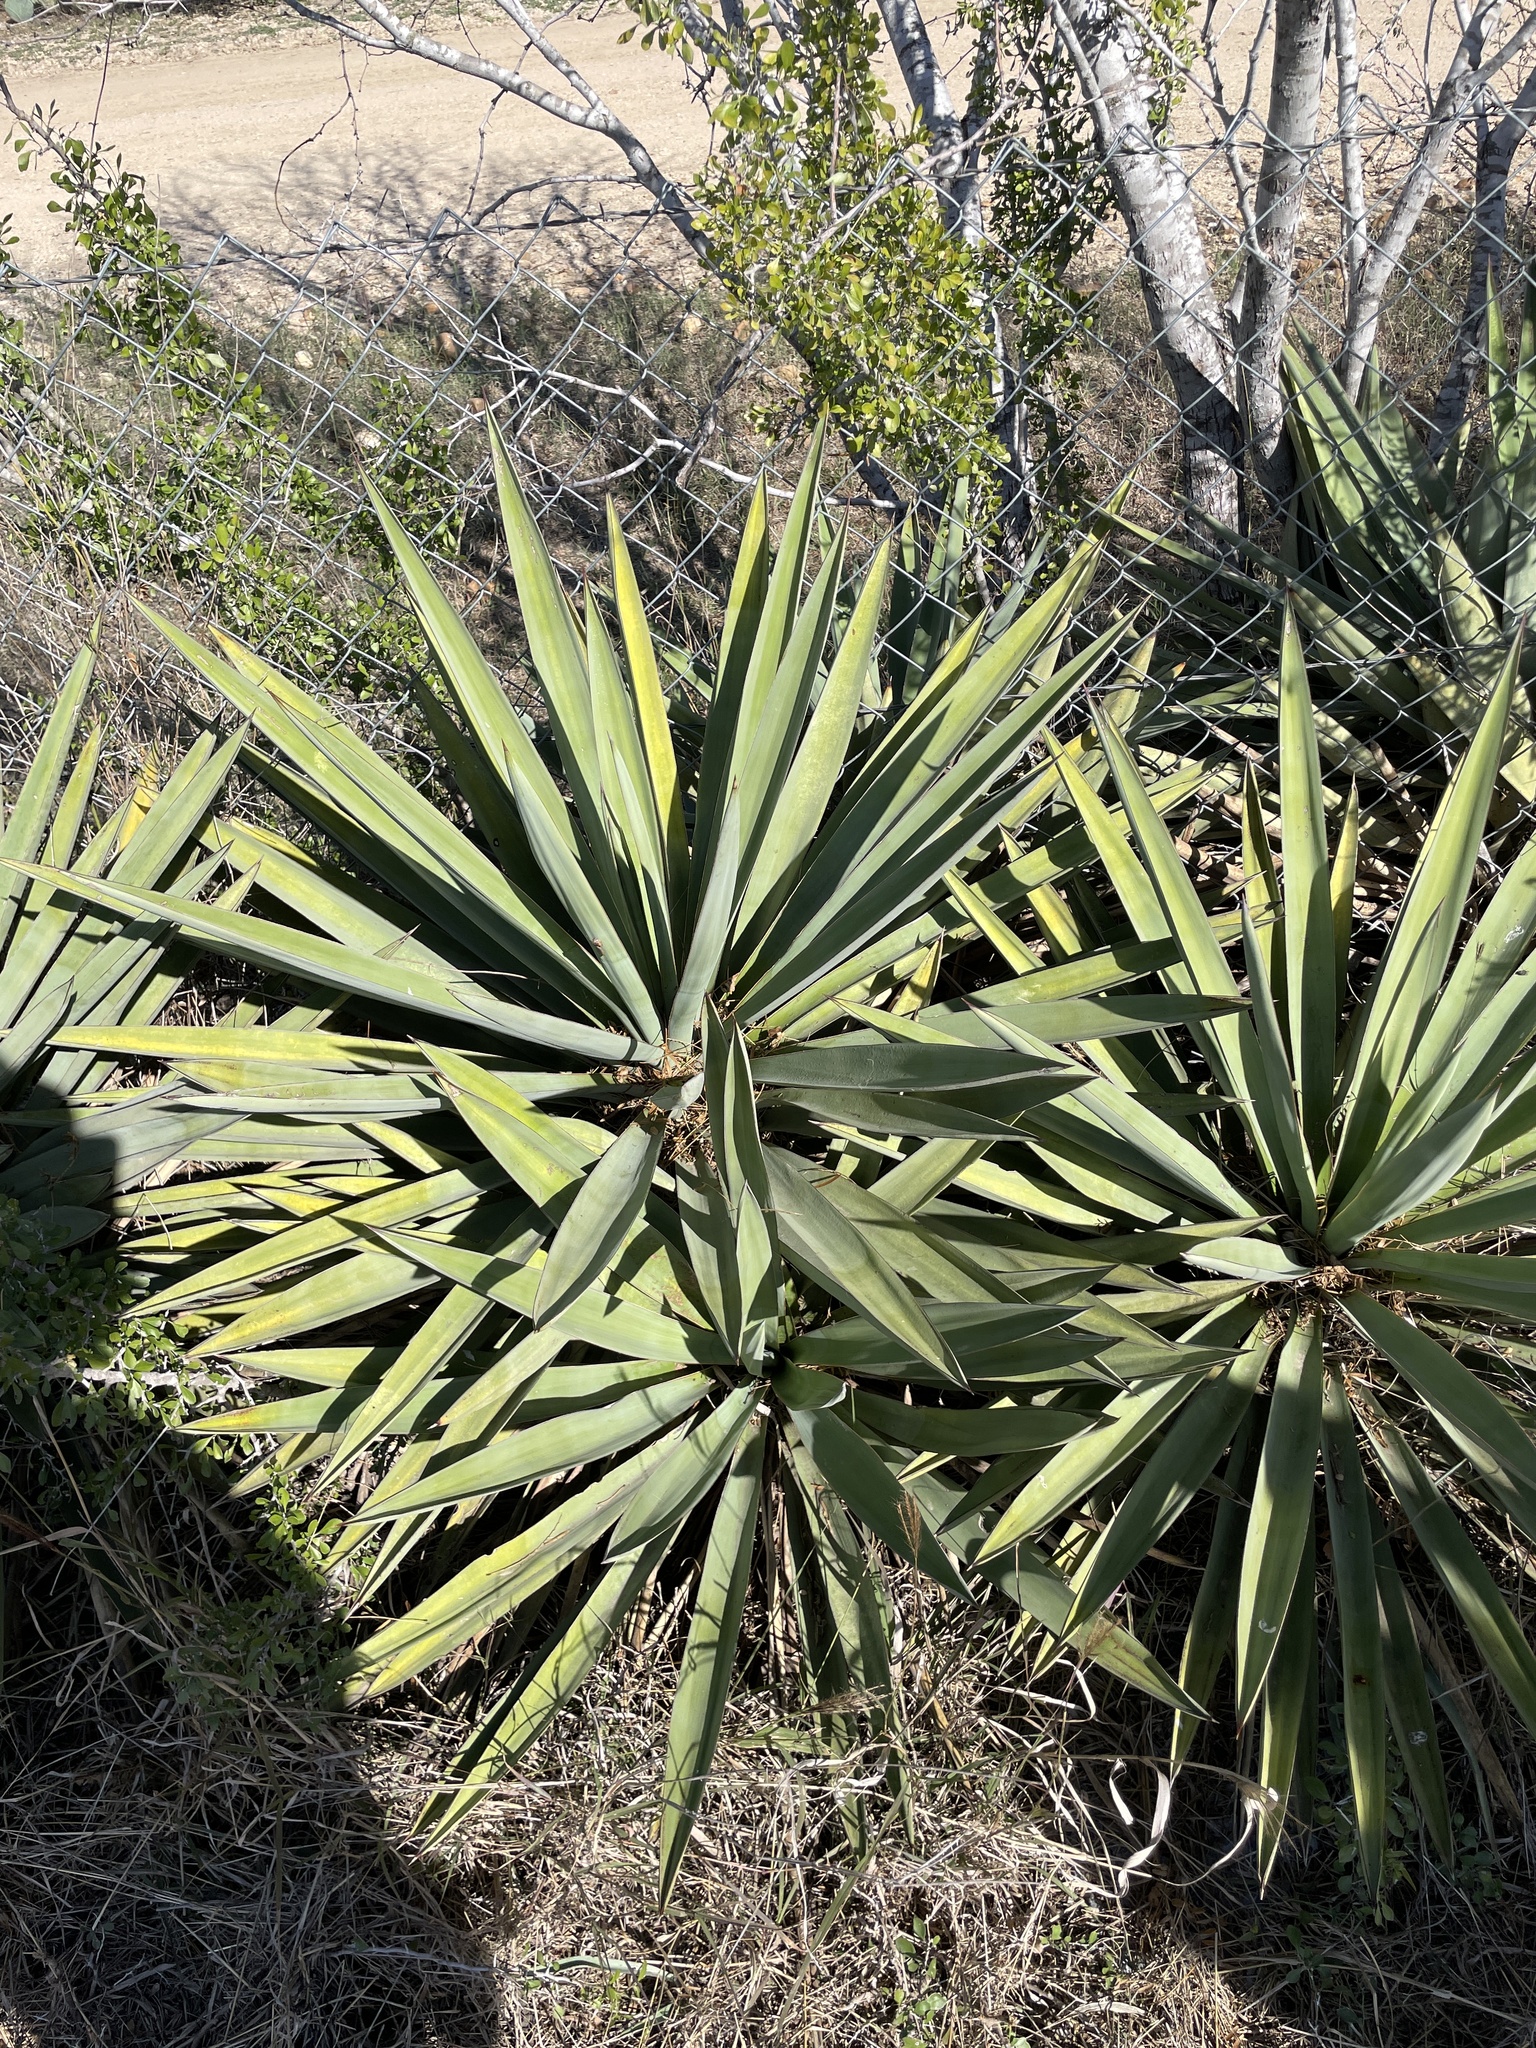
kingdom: Plantae
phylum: Tracheophyta
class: Liliopsida
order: Asparagales
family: Asparagaceae
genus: Yucca
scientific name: Yucca treculiana
